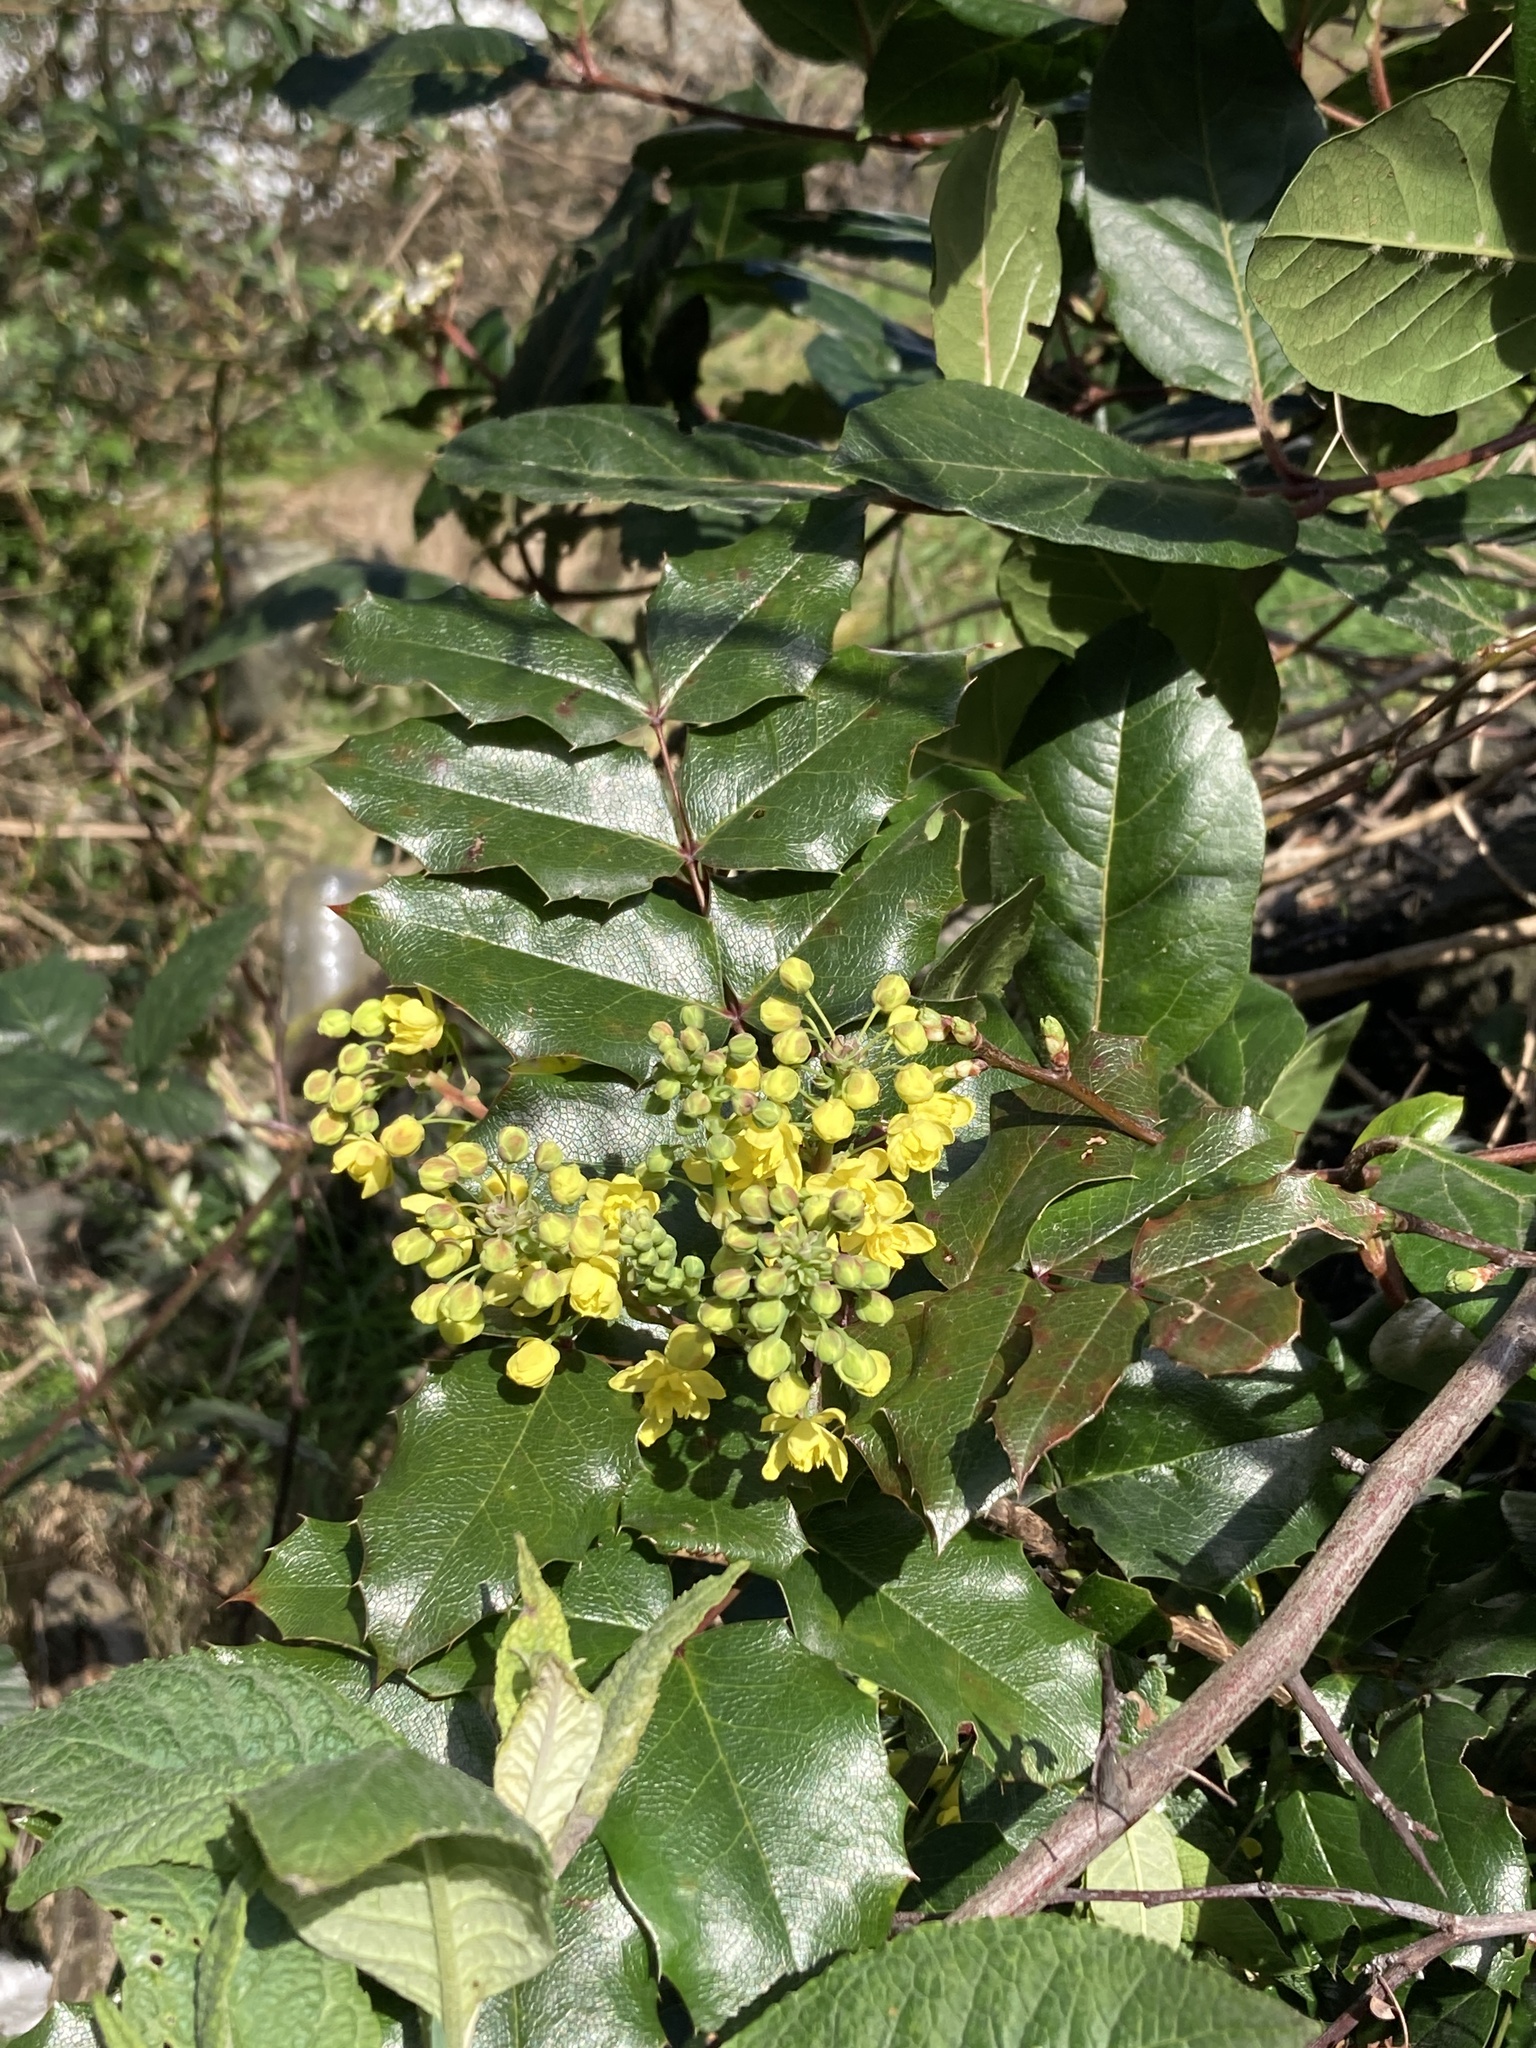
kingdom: Plantae
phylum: Tracheophyta
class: Magnoliopsida
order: Ranunculales
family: Berberidaceae
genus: Mahonia
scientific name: Mahonia aquifolium
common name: Oregon-grape
